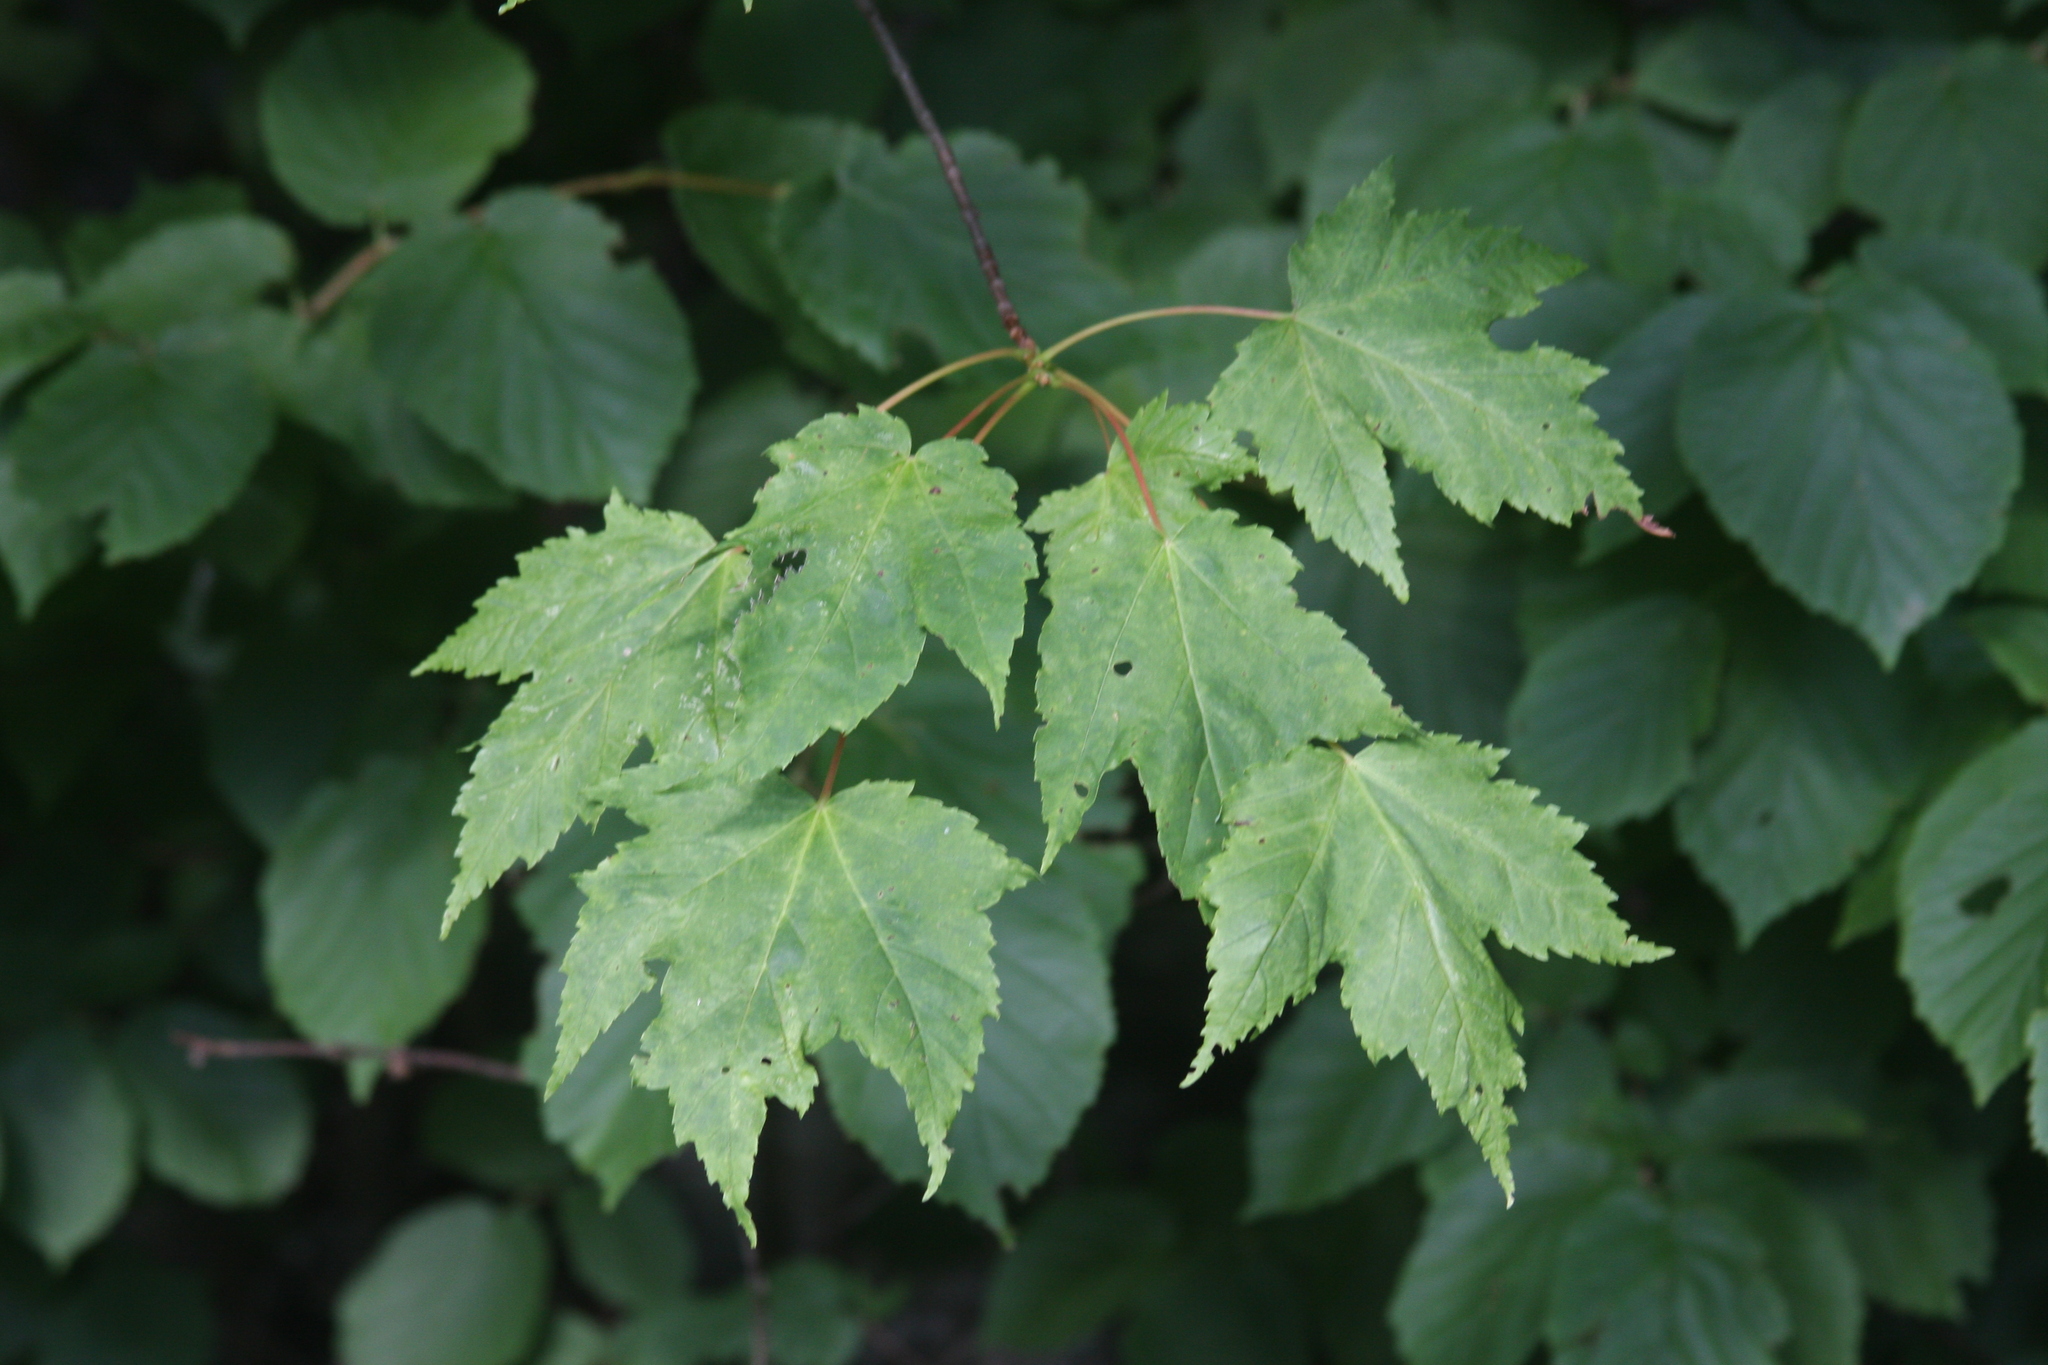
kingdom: Plantae
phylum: Tracheophyta
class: Magnoliopsida
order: Sapindales
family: Sapindaceae
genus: Acer
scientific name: Acer rubrum
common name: Red maple
